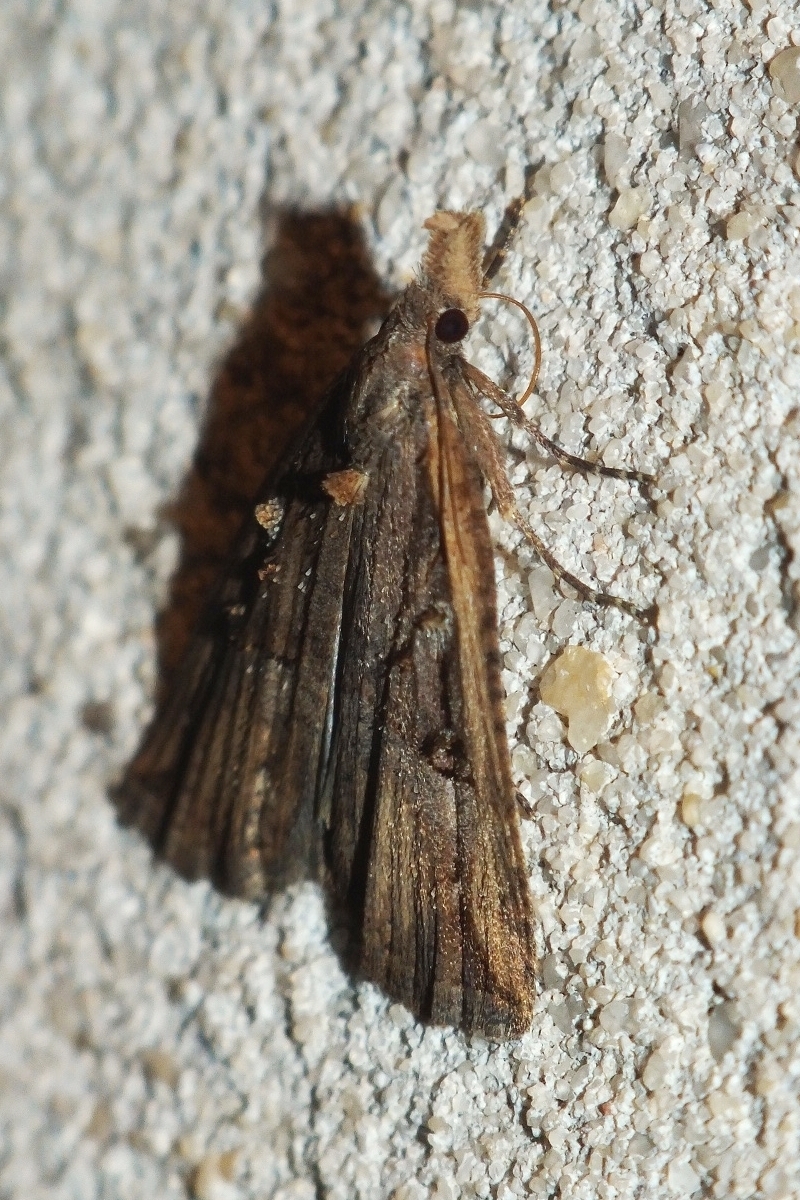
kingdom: Animalia
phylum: Arthropoda
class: Insecta
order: Lepidoptera
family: Erebidae
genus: Hypena
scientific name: Hypena rostralis
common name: Buttoned snout
